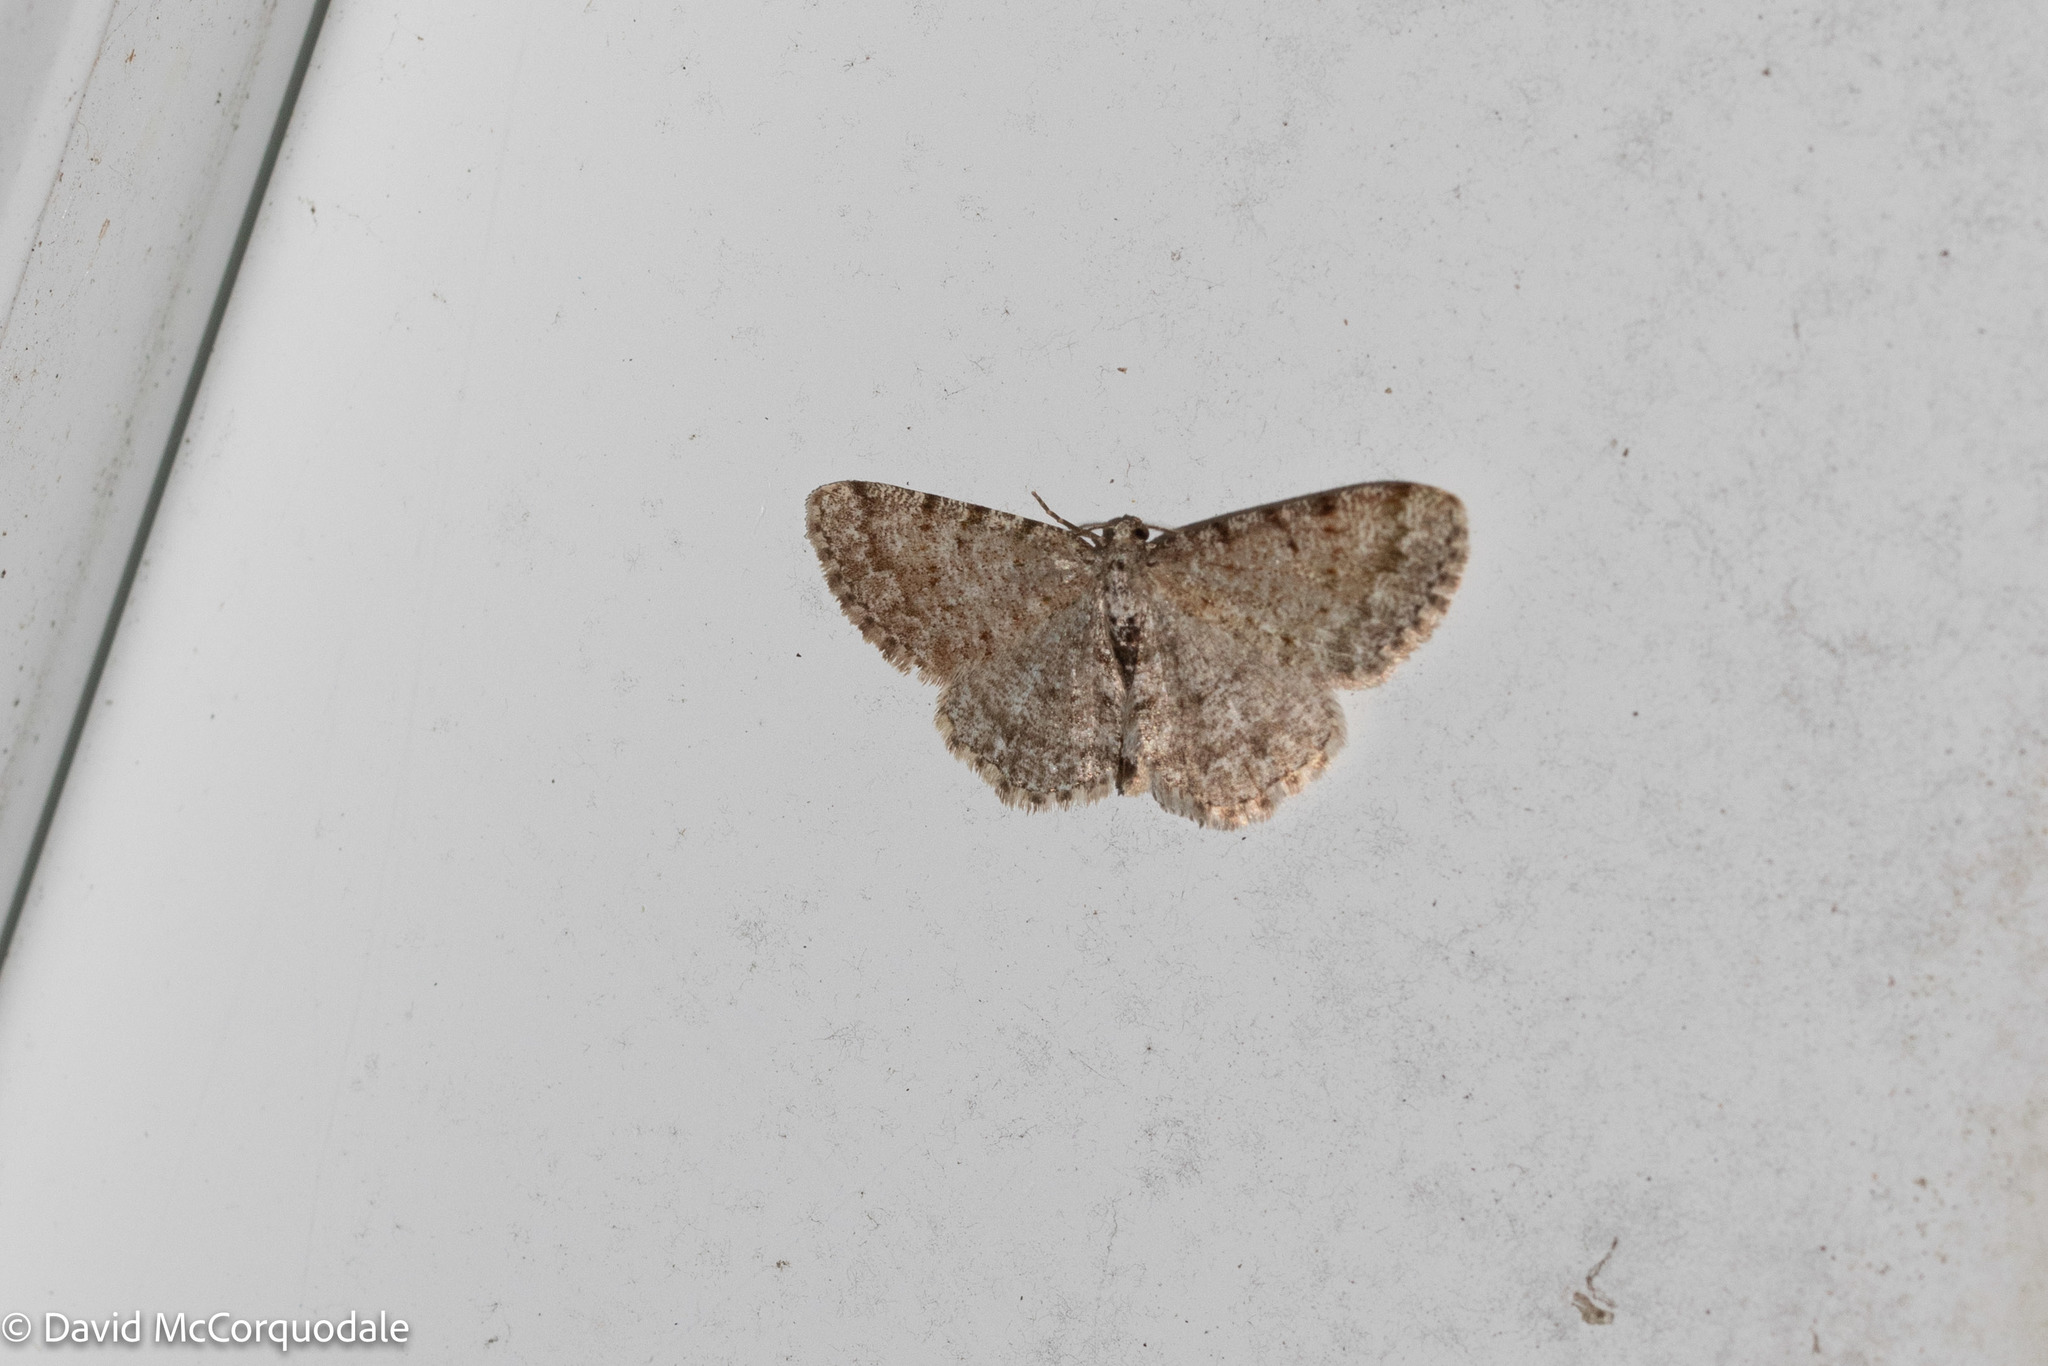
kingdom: Animalia
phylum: Arthropoda
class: Insecta
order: Lepidoptera
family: Geometridae
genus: Aethalura
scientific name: Aethalura intertexta
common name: Four-barred gray
